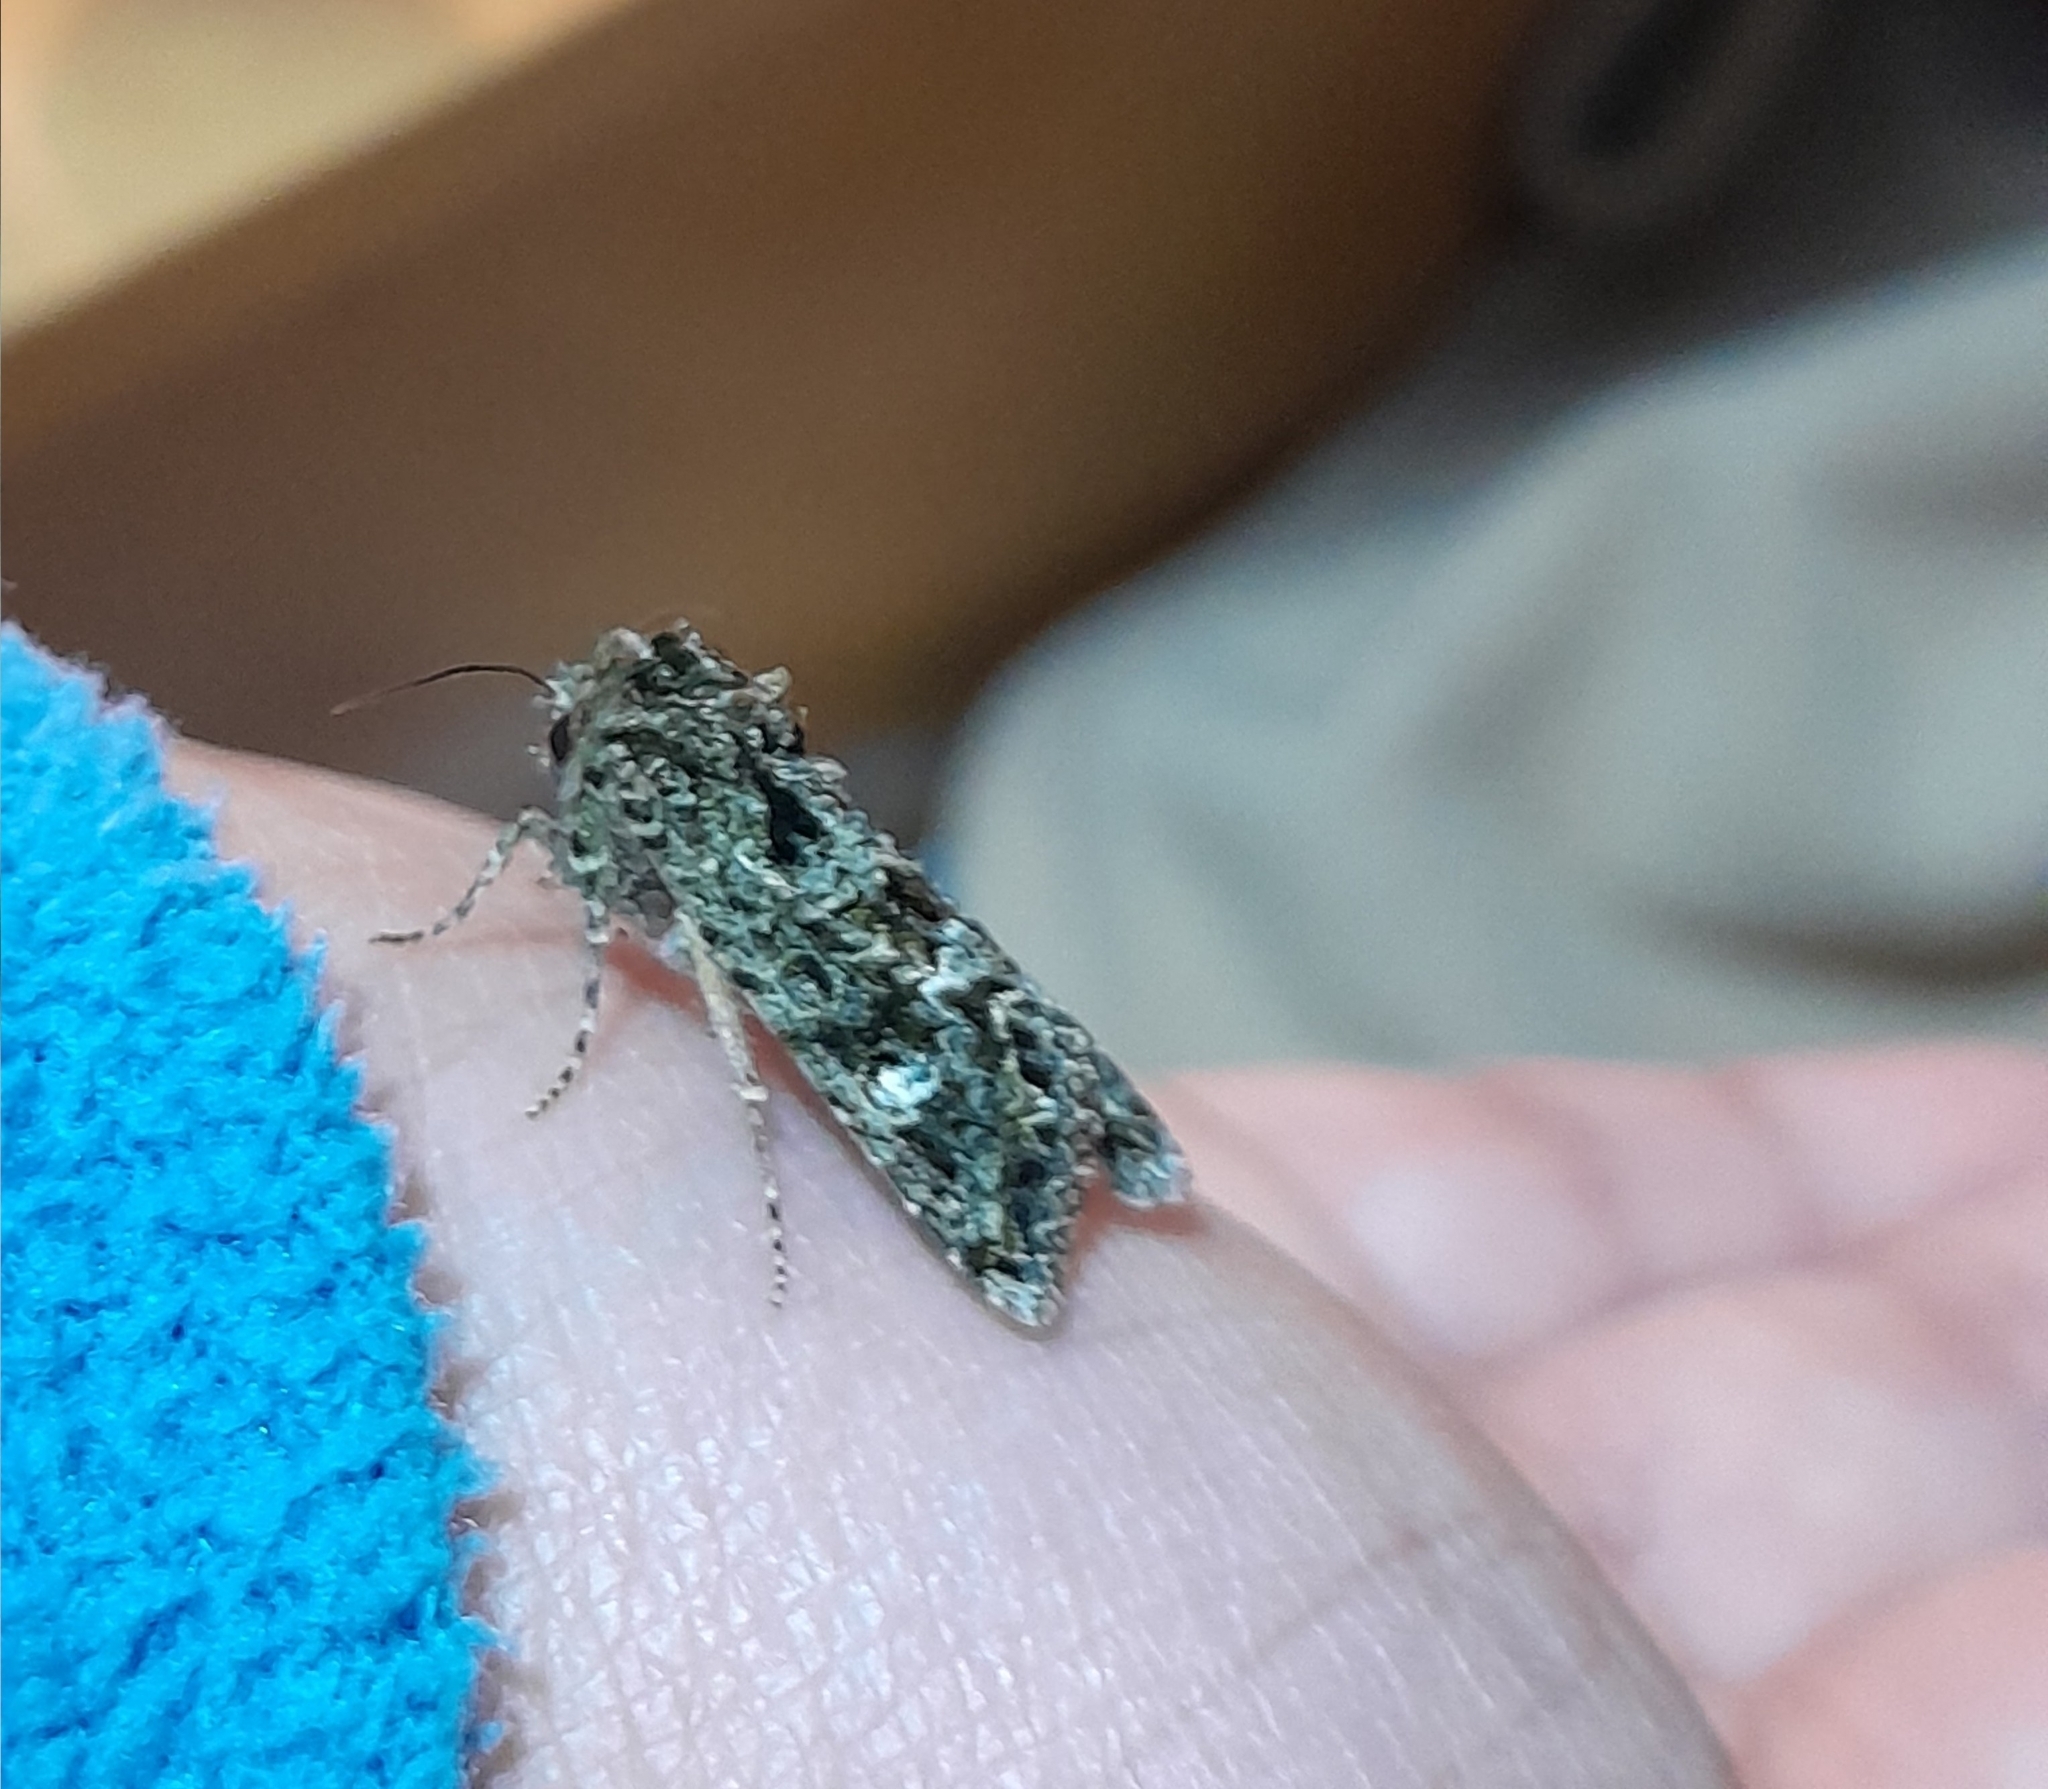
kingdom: Animalia
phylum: Arthropoda
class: Insecta
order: Lepidoptera
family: Noctuidae
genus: Ichneutica
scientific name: Ichneutica
